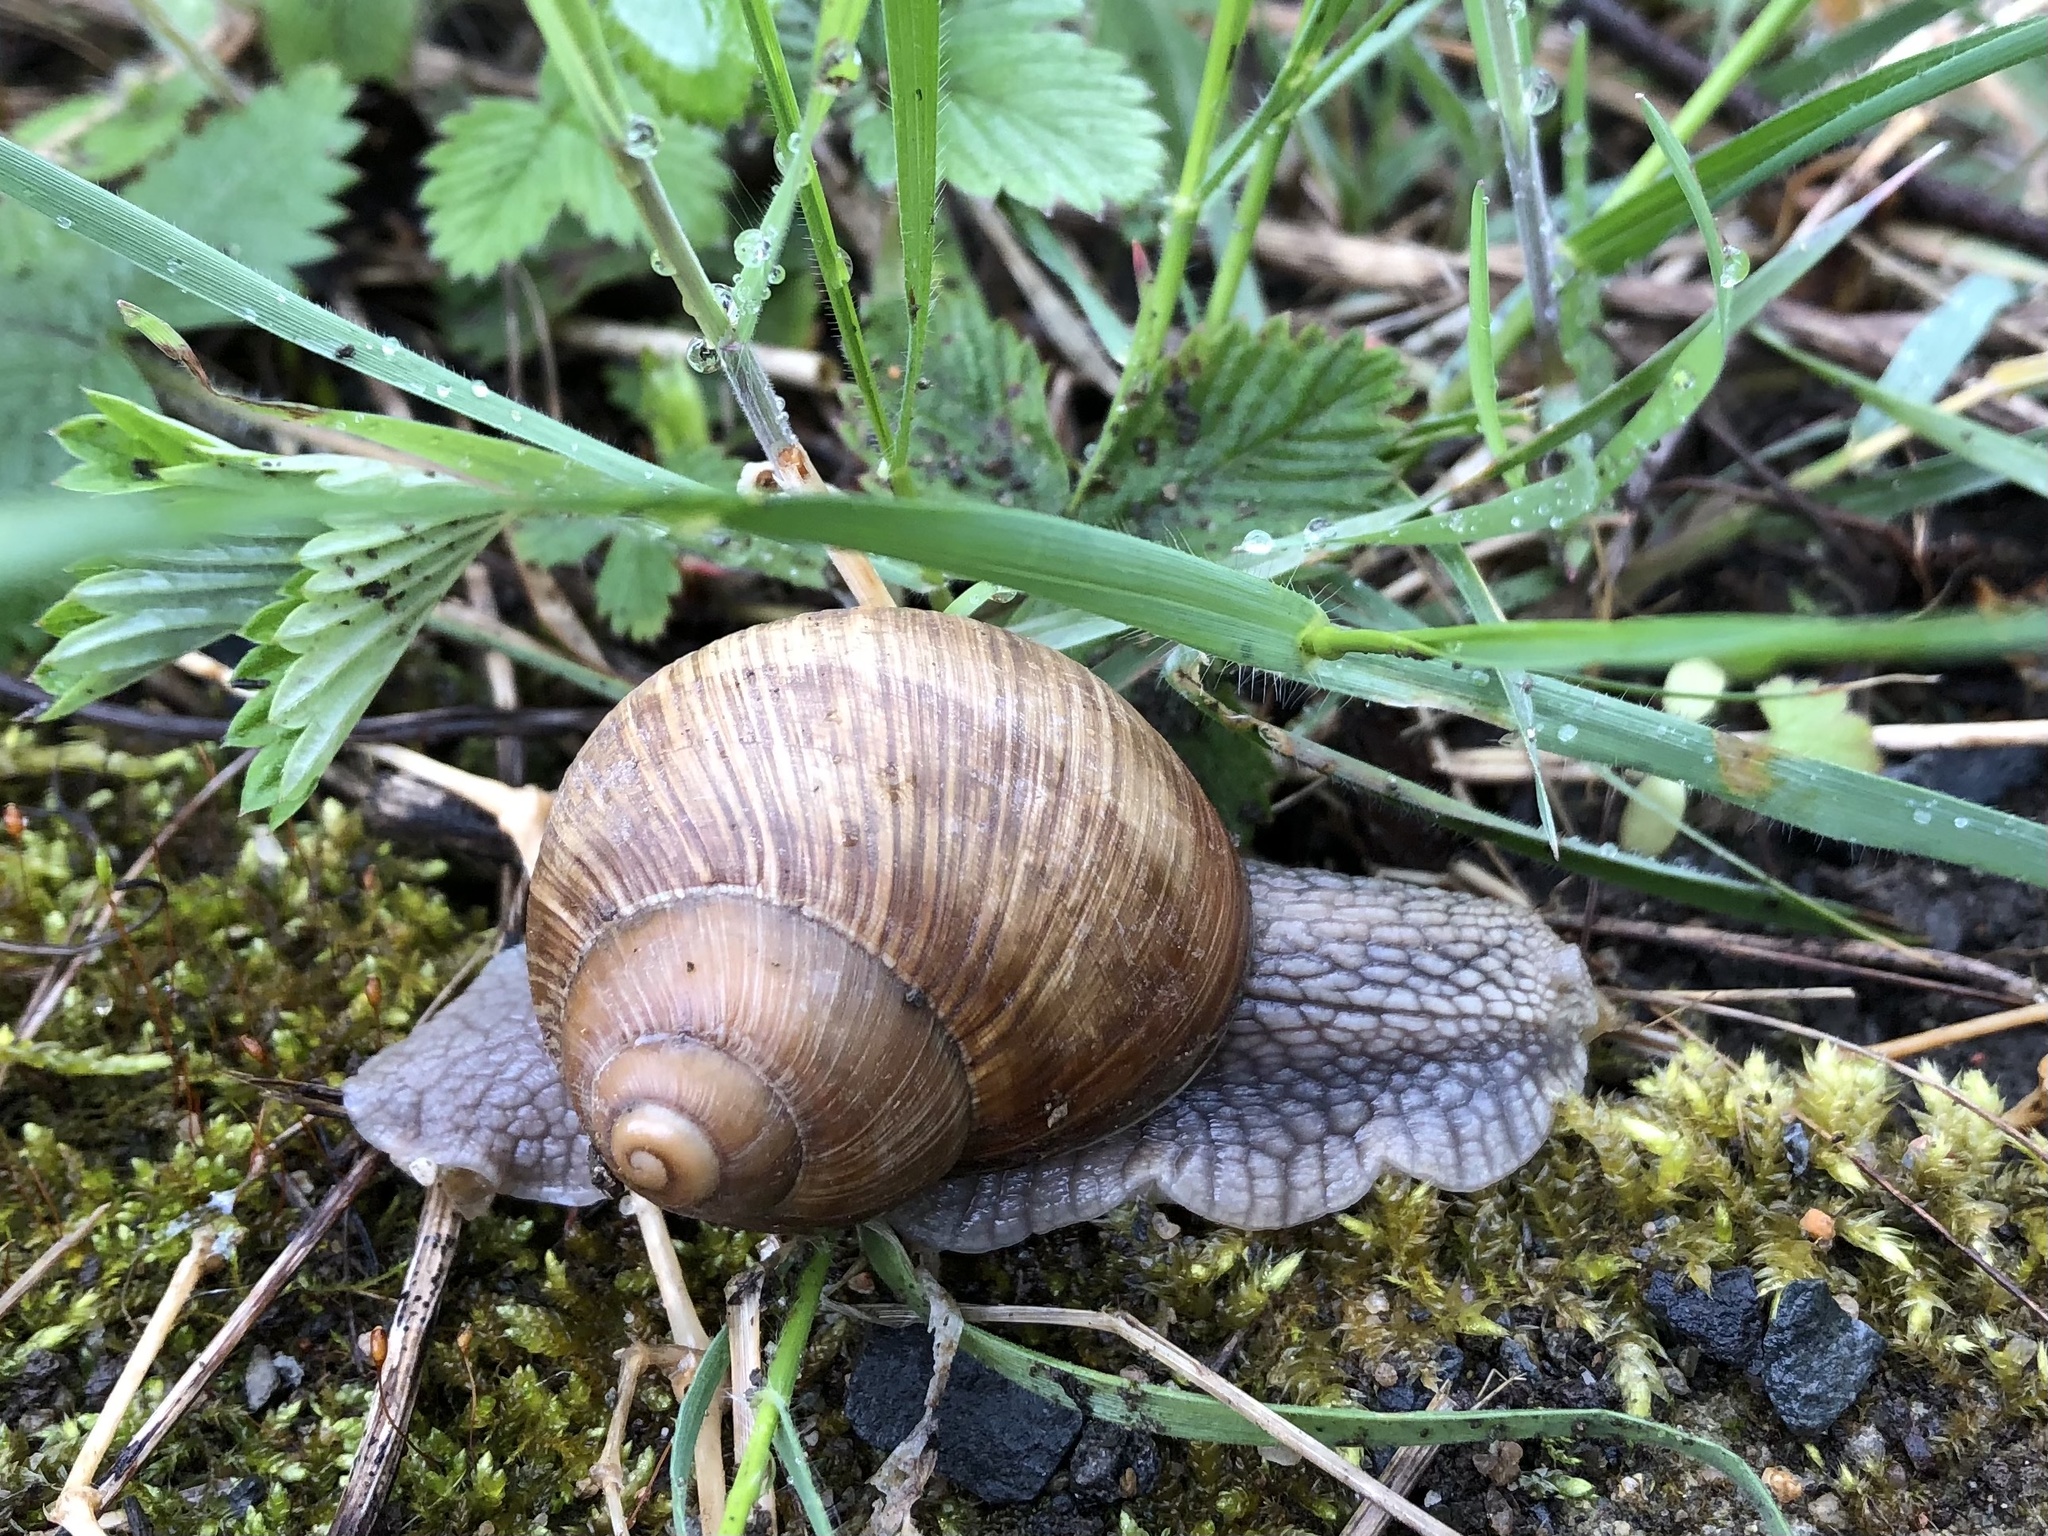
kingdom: Animalia
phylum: Mollusca
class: Gastropoda
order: Stylommatophora
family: Helicidae
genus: Helix
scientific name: Helix pomatia
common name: Roman snail
